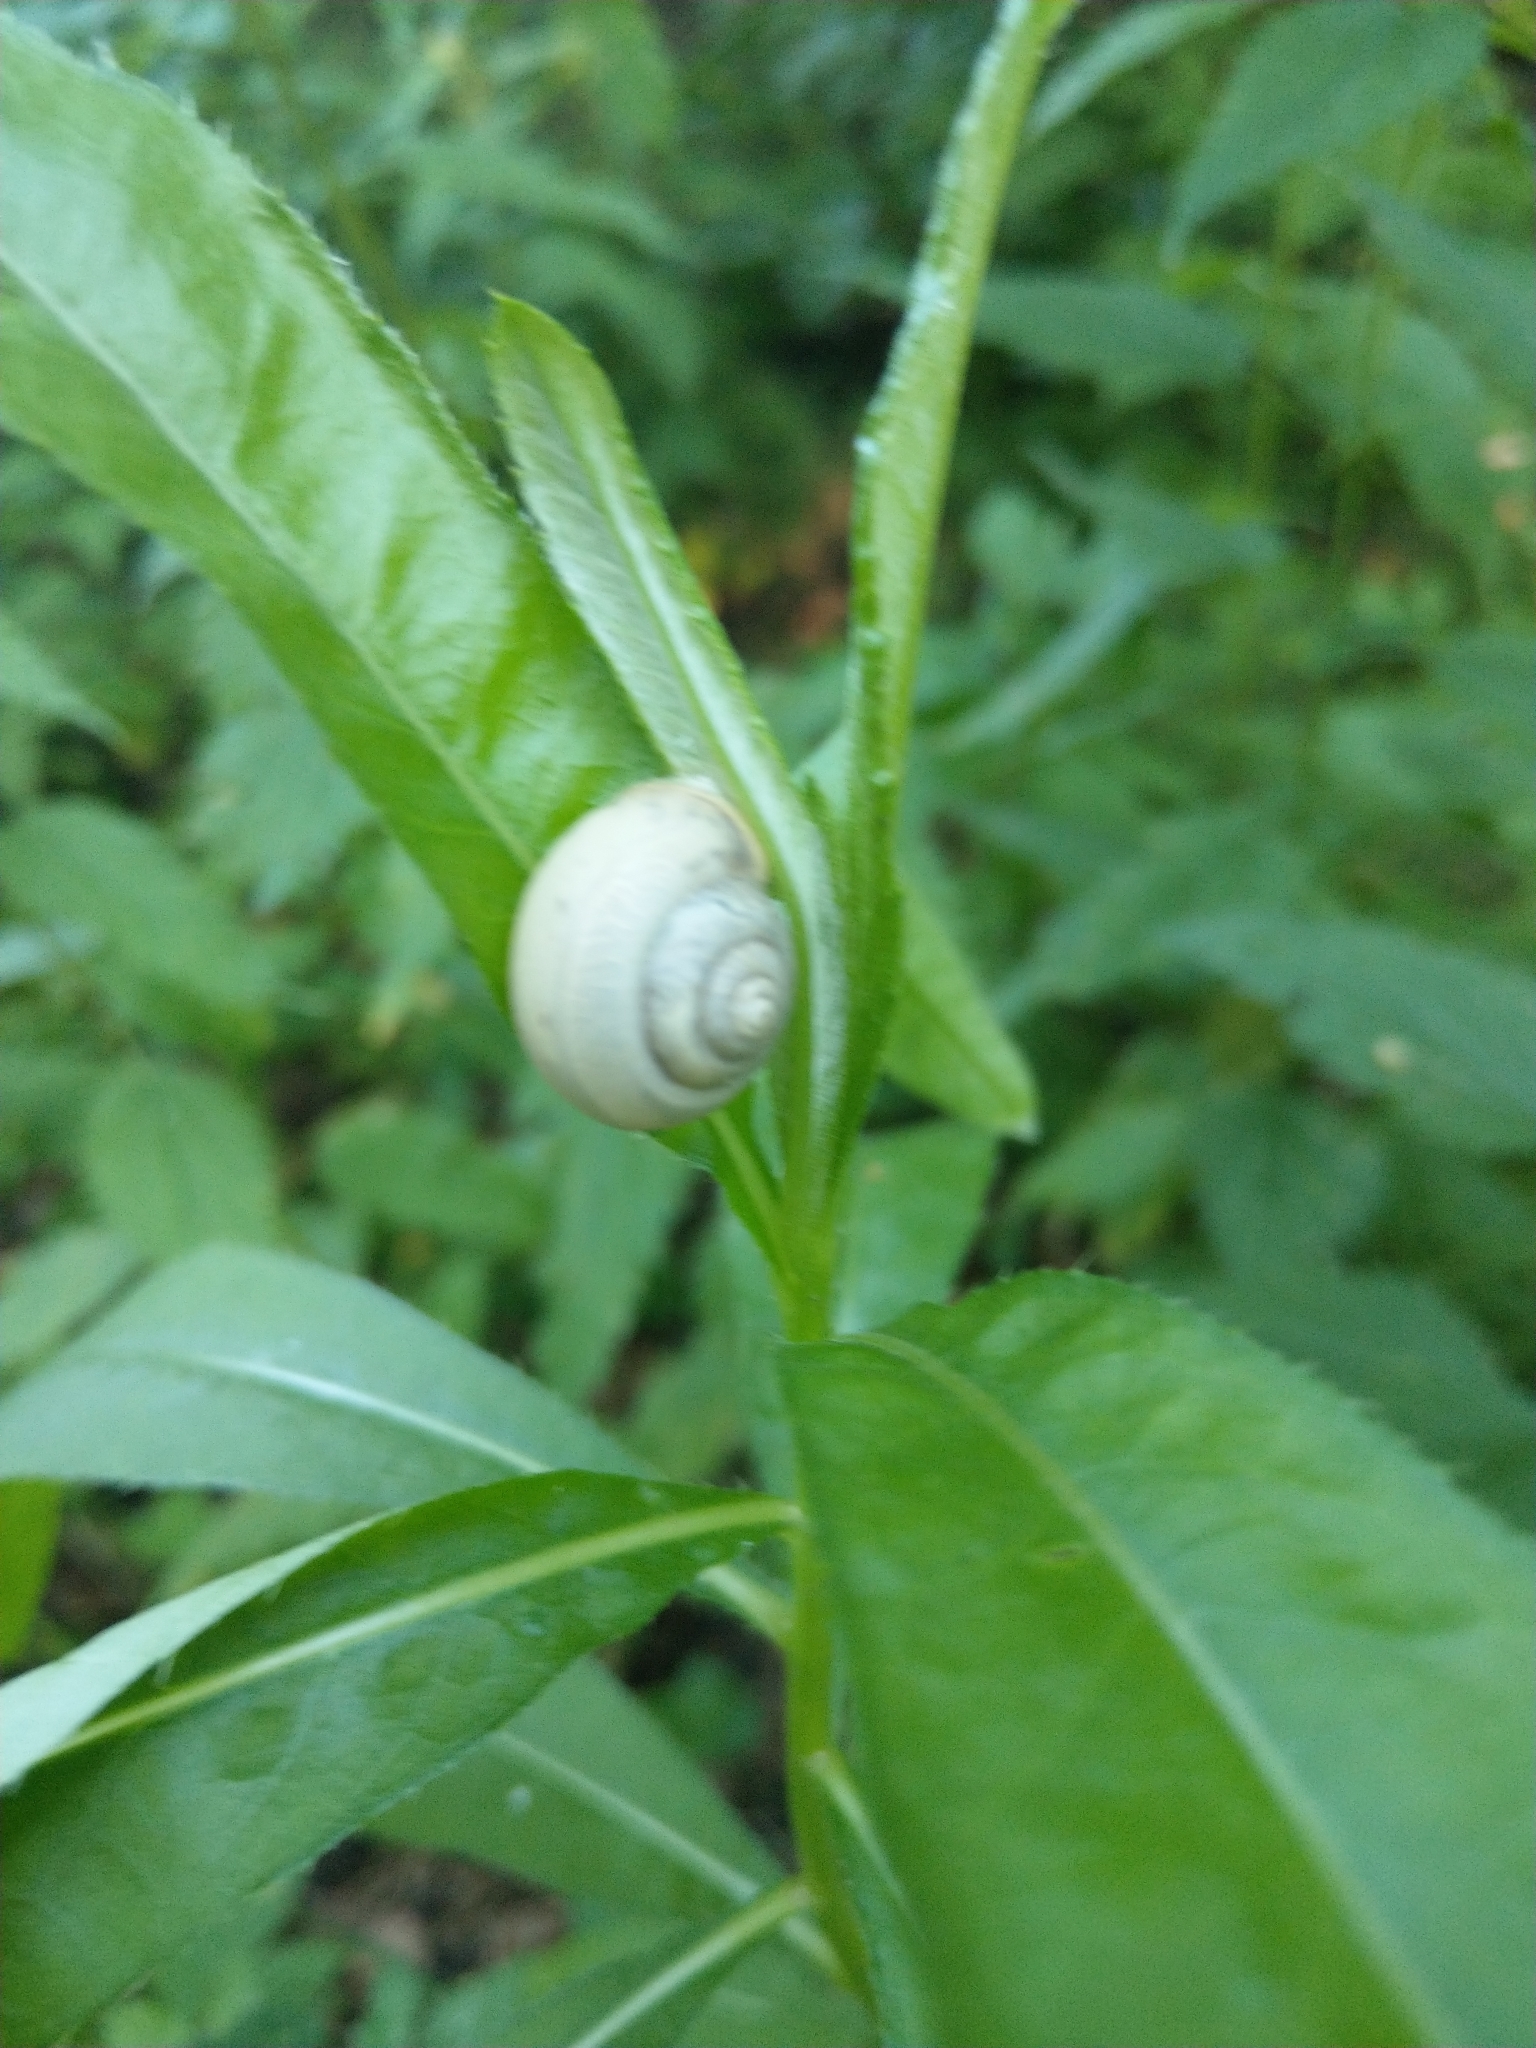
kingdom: Animalia
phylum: Mollusca
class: Gastropoda
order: Stylommatophora
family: Camaenidae
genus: Fruticicola
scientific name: Fruticicola fruticum
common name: Bush snail
